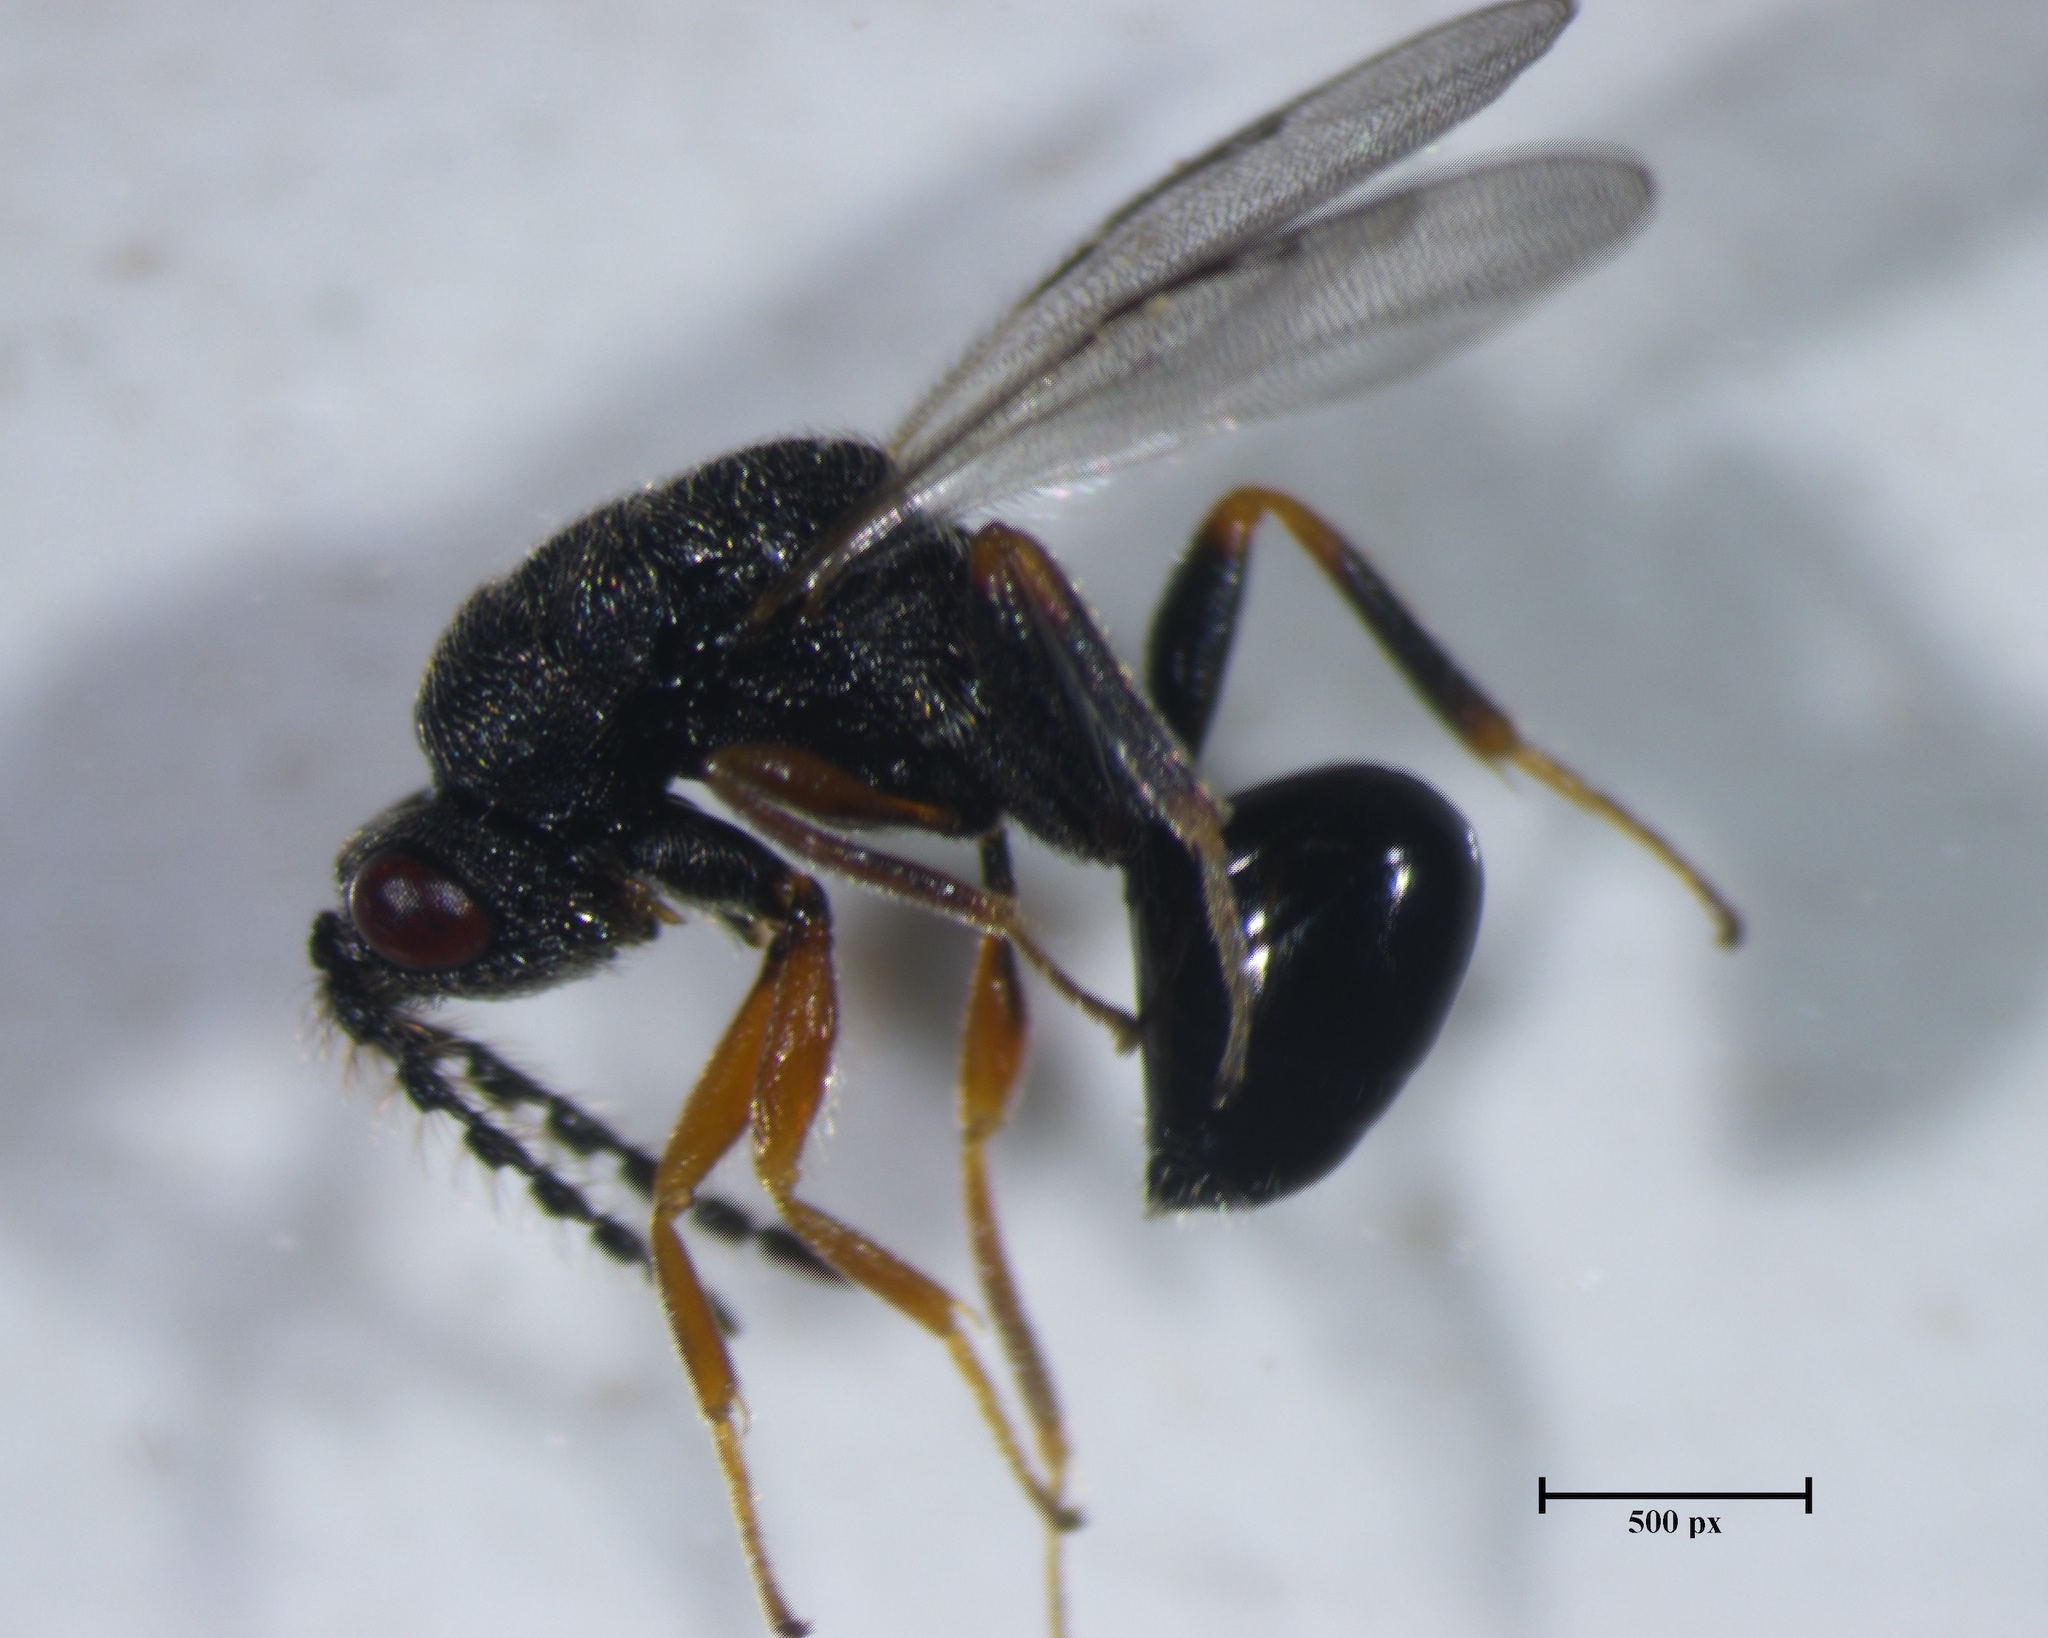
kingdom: Animalia
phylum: Arthropoda
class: Insecta
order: Hymenoptera
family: Eurytomidae
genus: Eurytoma
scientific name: Eurytoma discordans
